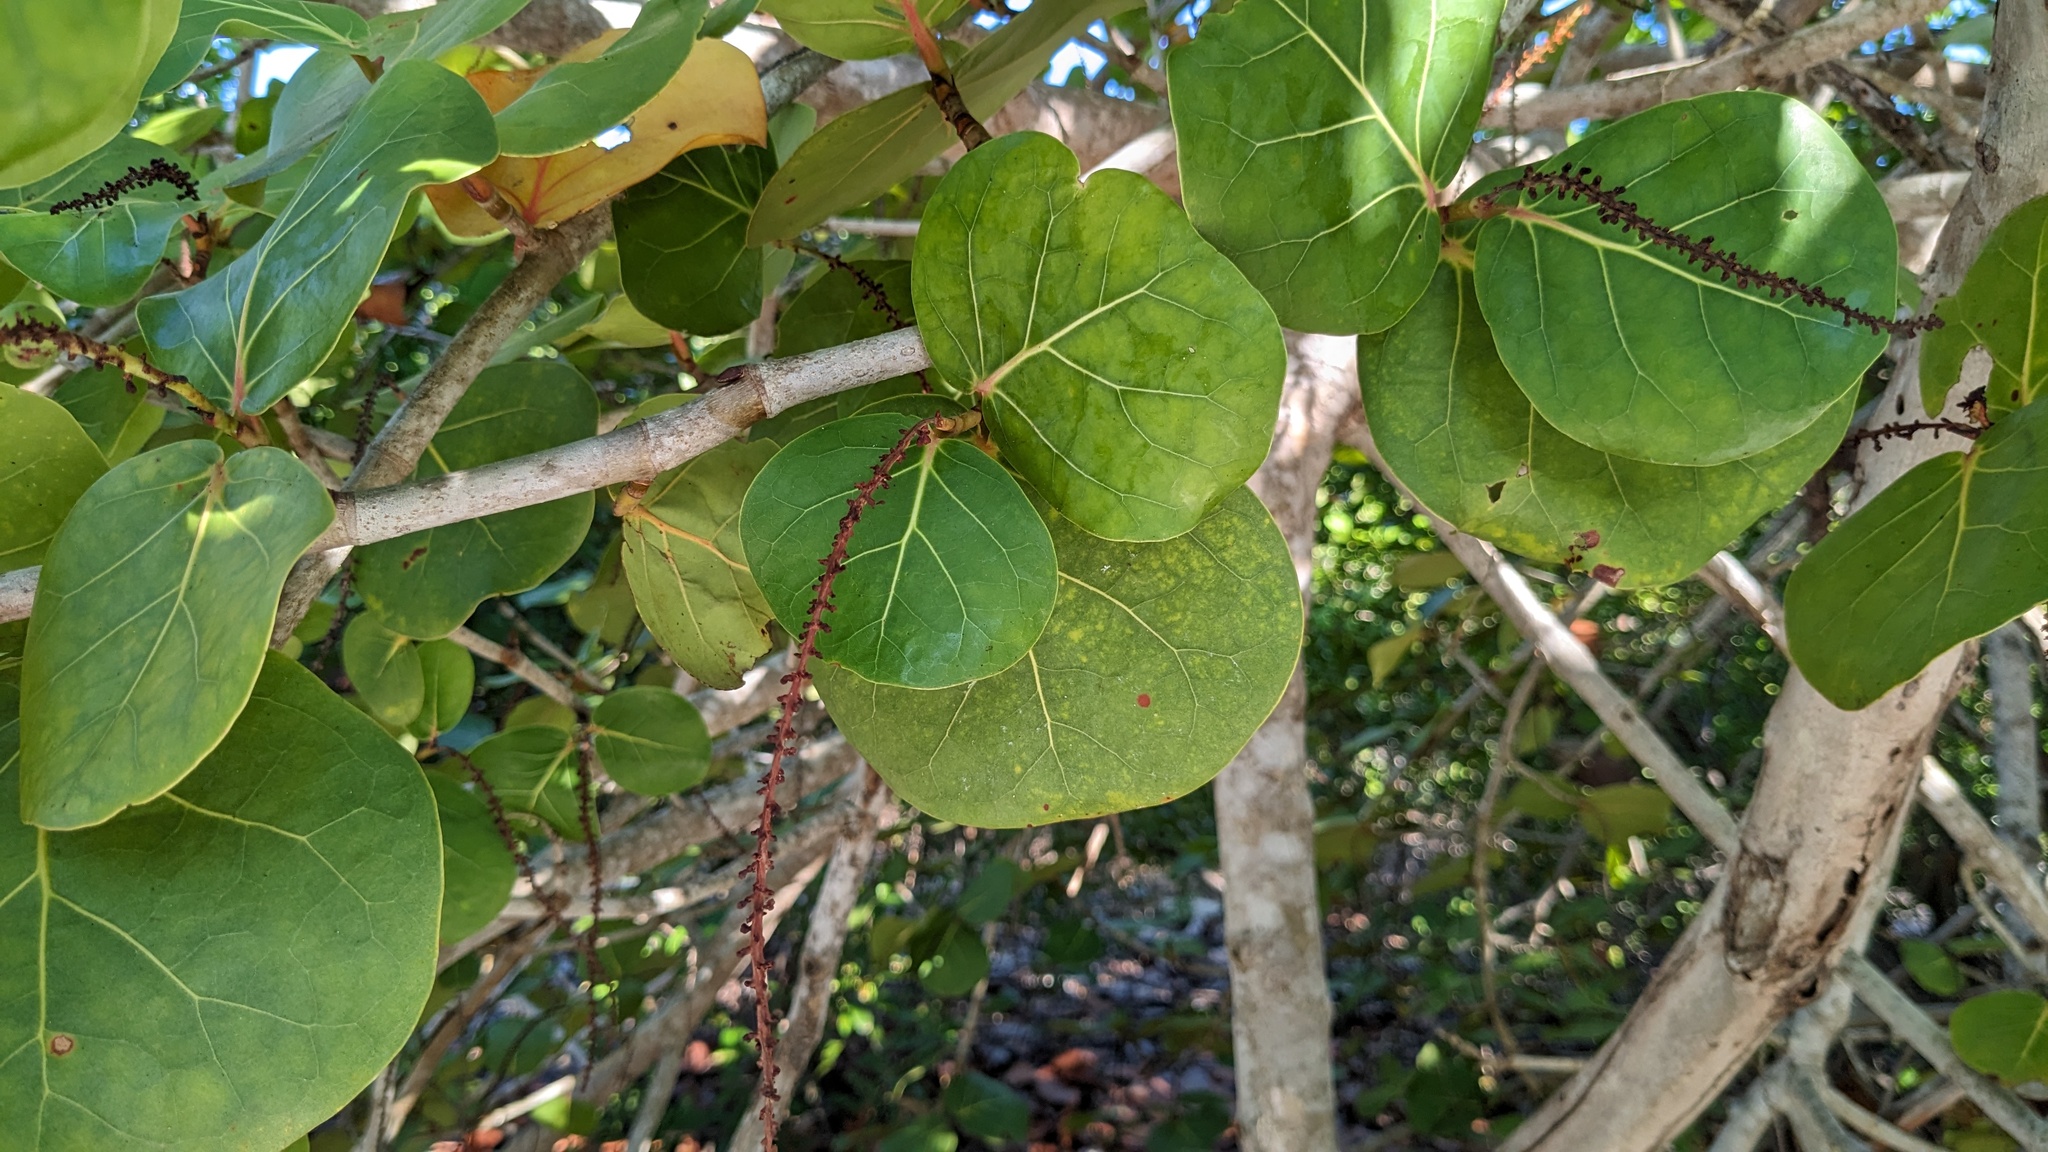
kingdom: Plantae
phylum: Tracheophyta
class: Magnoliopsida
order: Caryophyllales
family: Polygonaceae
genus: Coccoloba
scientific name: Coccoloba uvifera
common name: Seagrape
